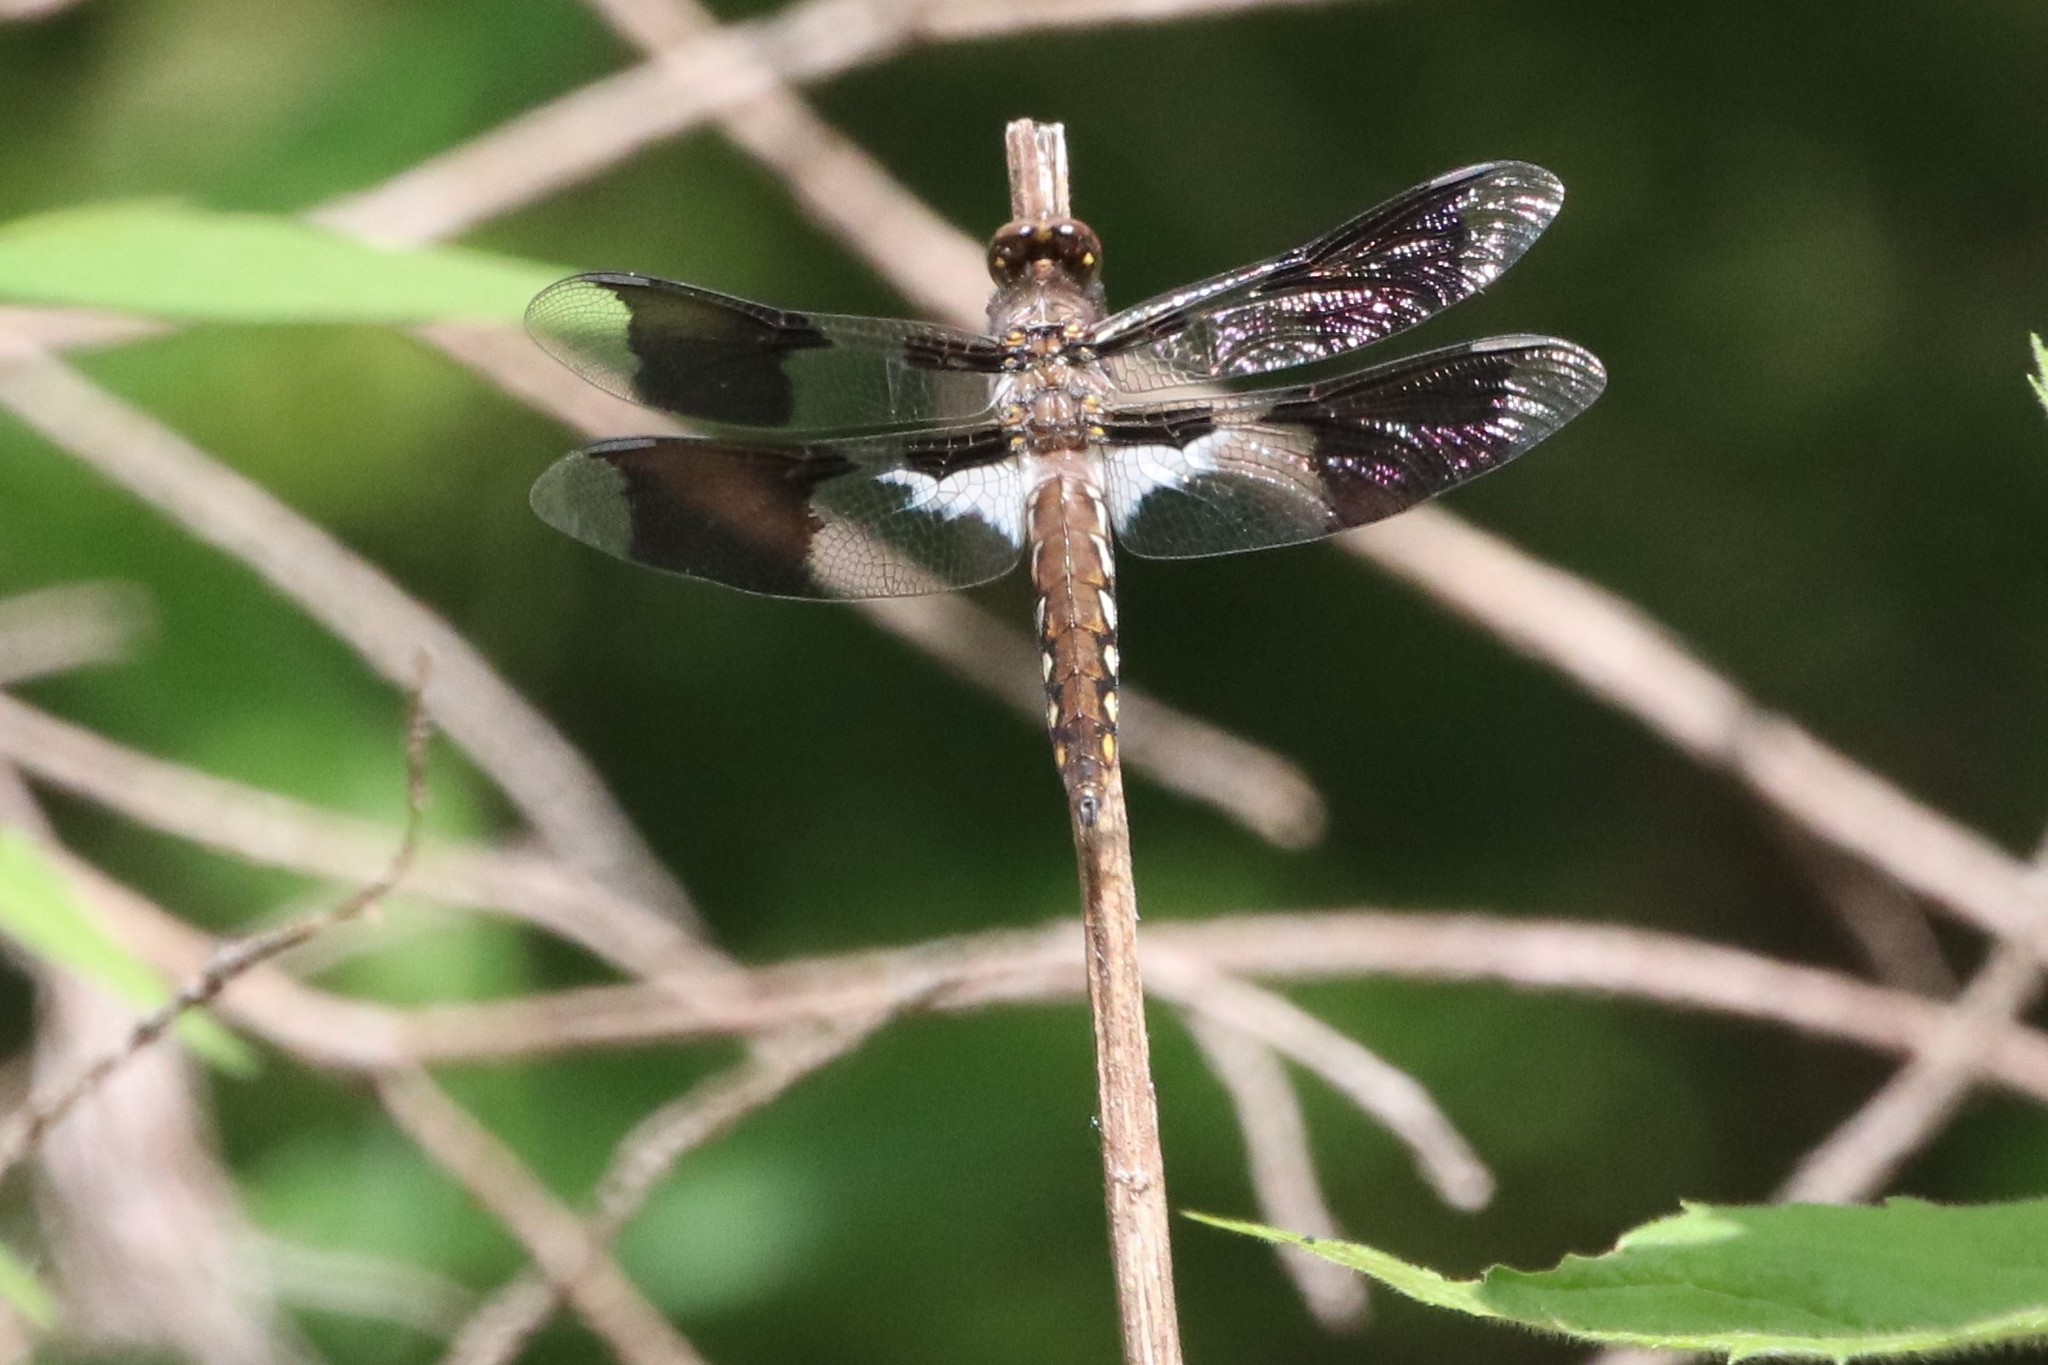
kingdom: Animalia
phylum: Arthropoda
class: Insecta
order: Odonata
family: Libellulidae
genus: Plathemis
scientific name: Plathemis lydia
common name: Common whitetail
